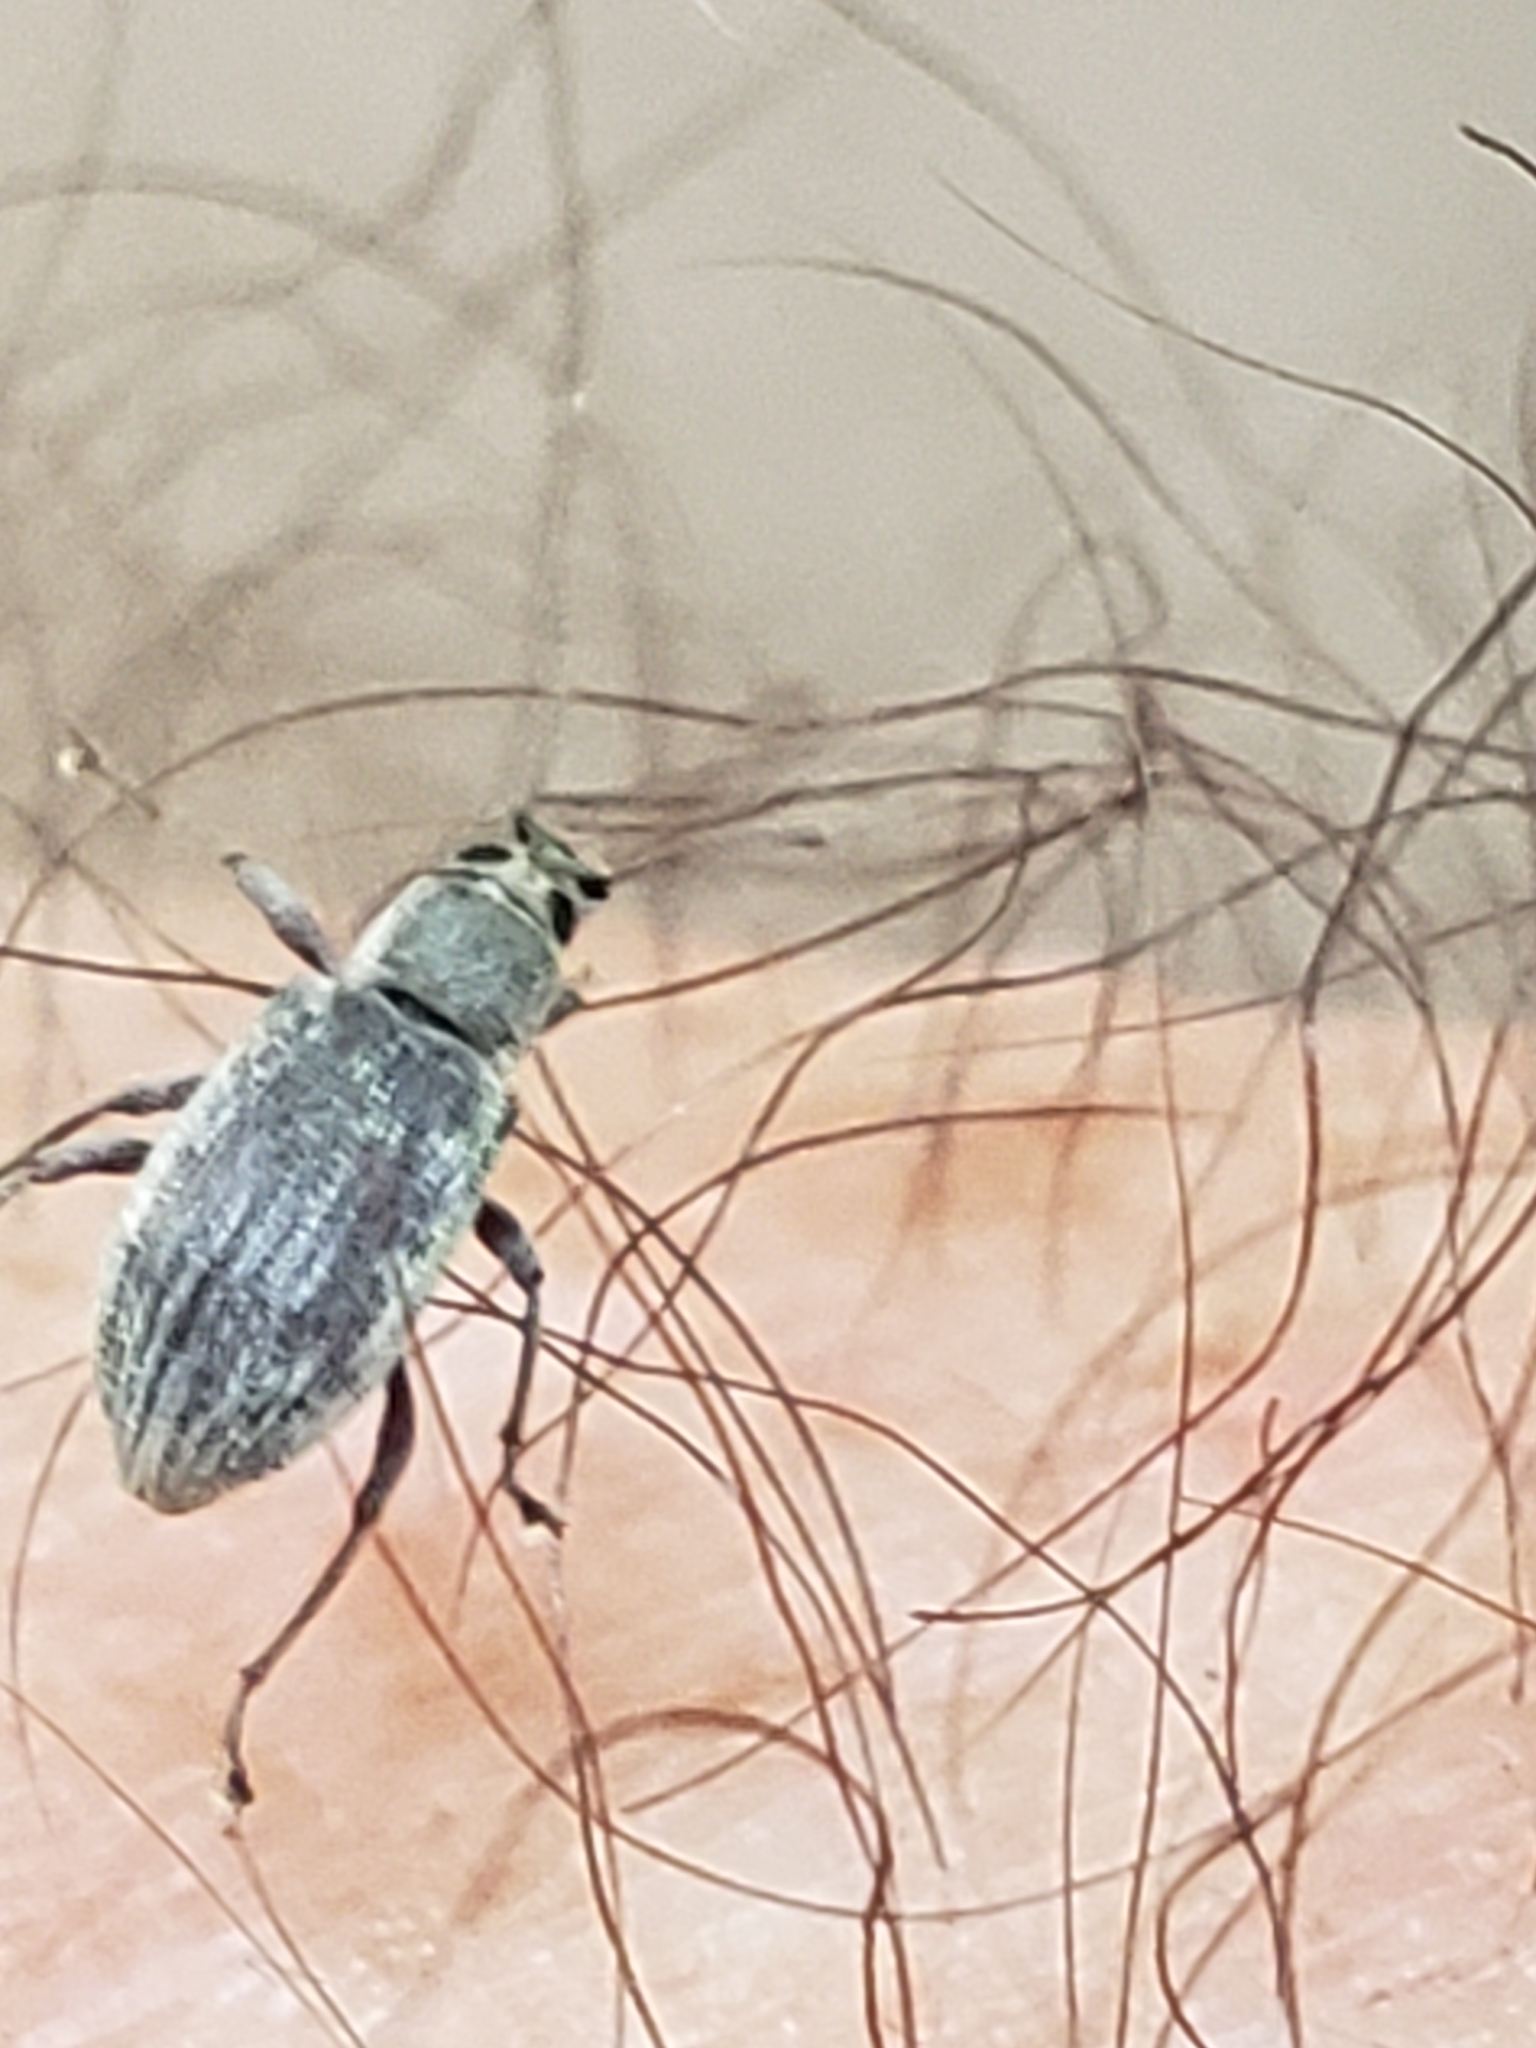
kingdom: Animalia
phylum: Arthropoda
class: Insecta
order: Coleoptera
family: Curculionidae
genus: Cyrtepistomus
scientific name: Cyrtepistomus castaneus
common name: Weevil
